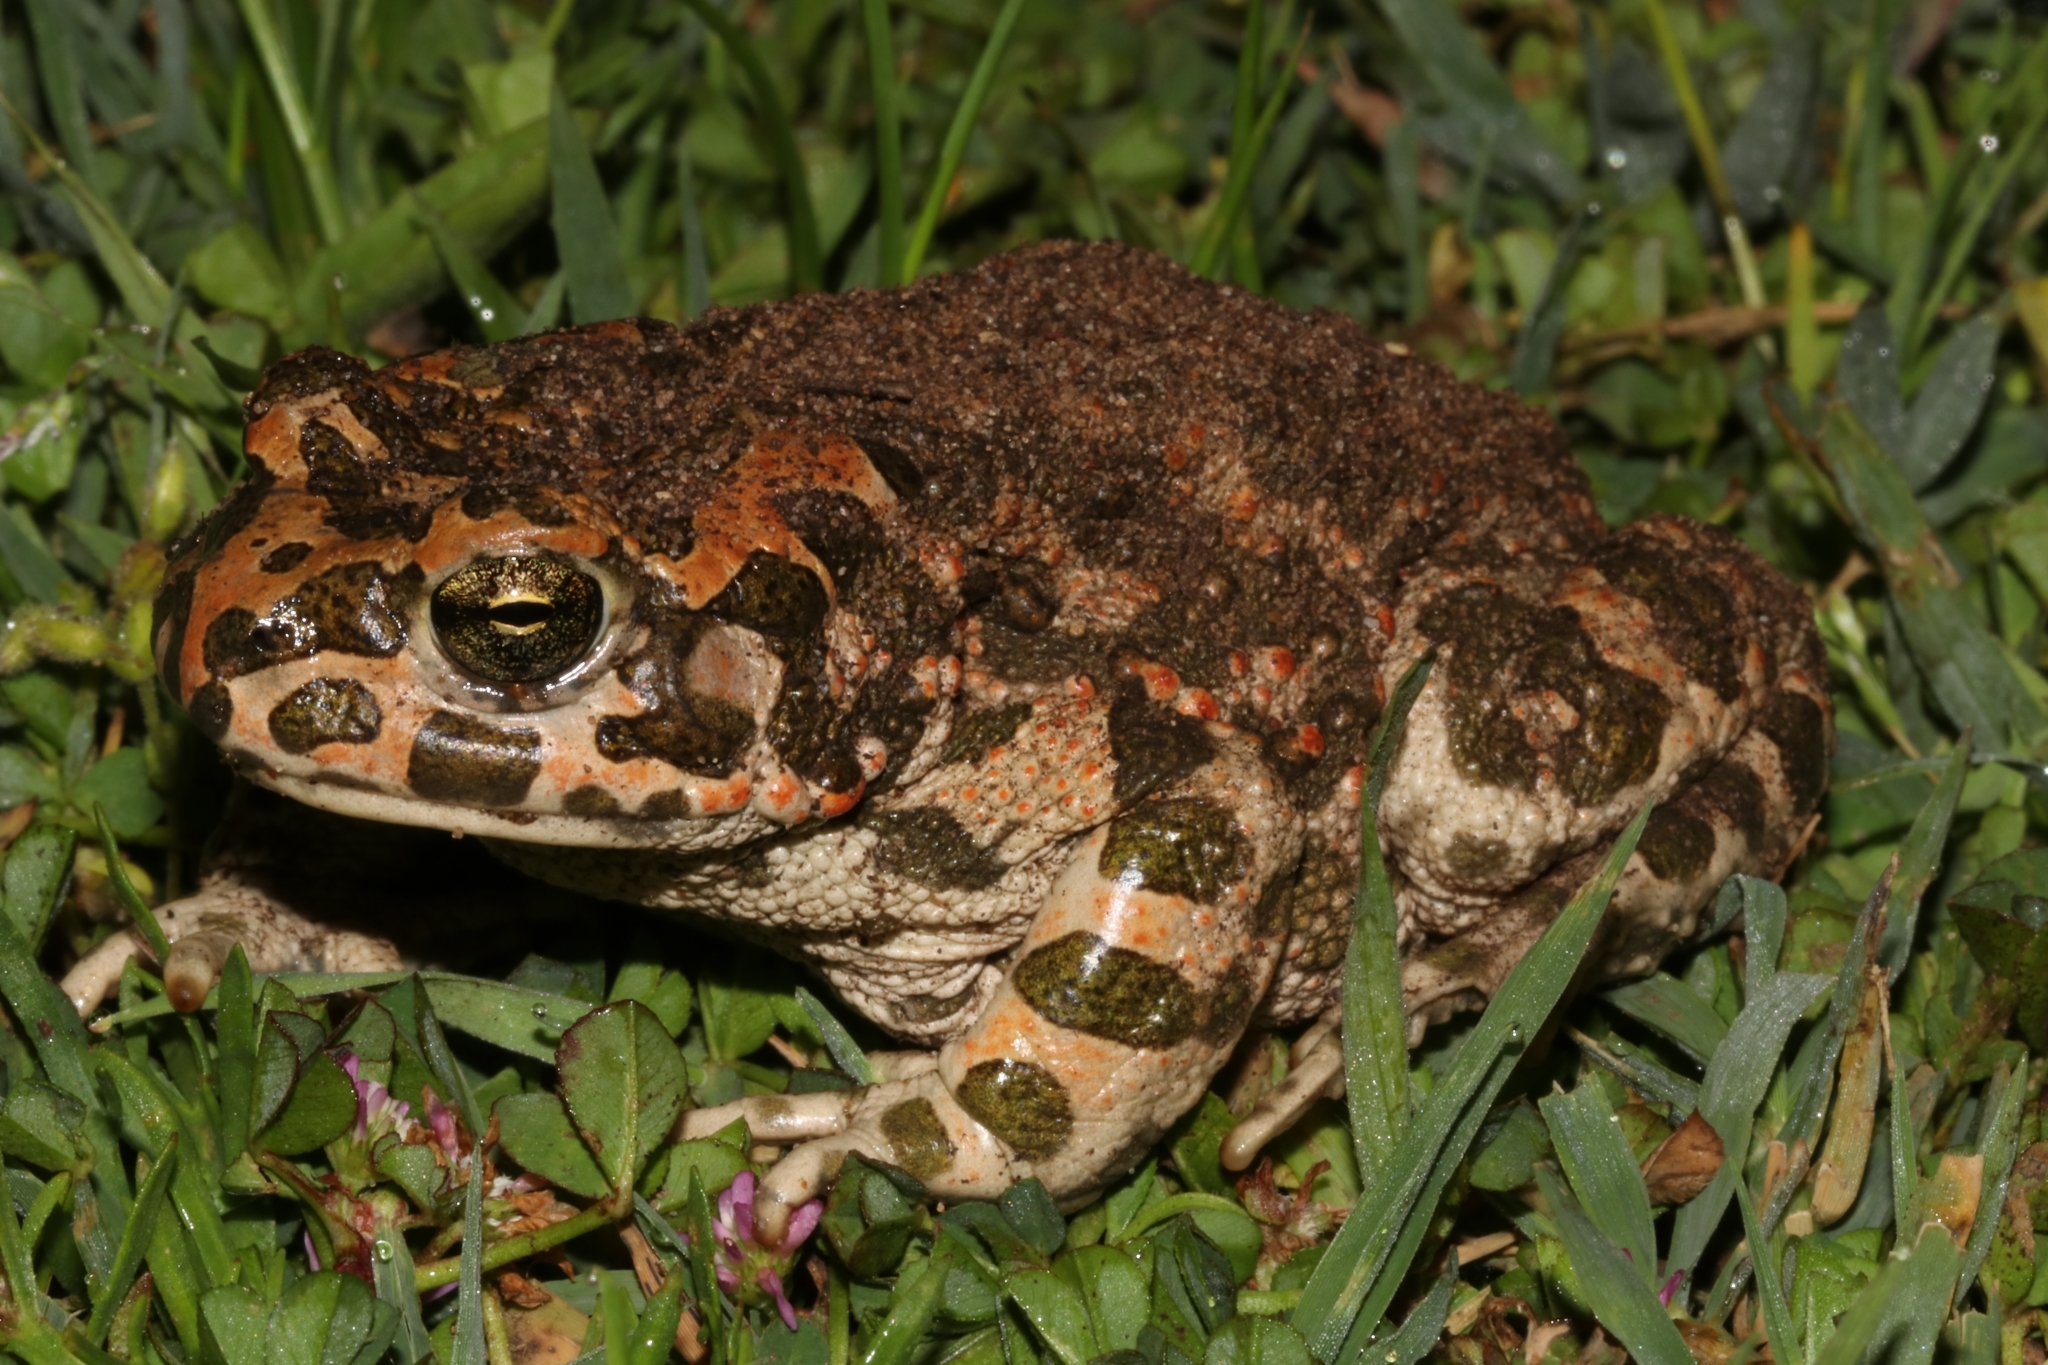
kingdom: Animalia
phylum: Chordata
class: Amphibia
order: Anura
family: Bufonidae
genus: Bufotes
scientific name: Bufotes viridis
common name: European green toad
